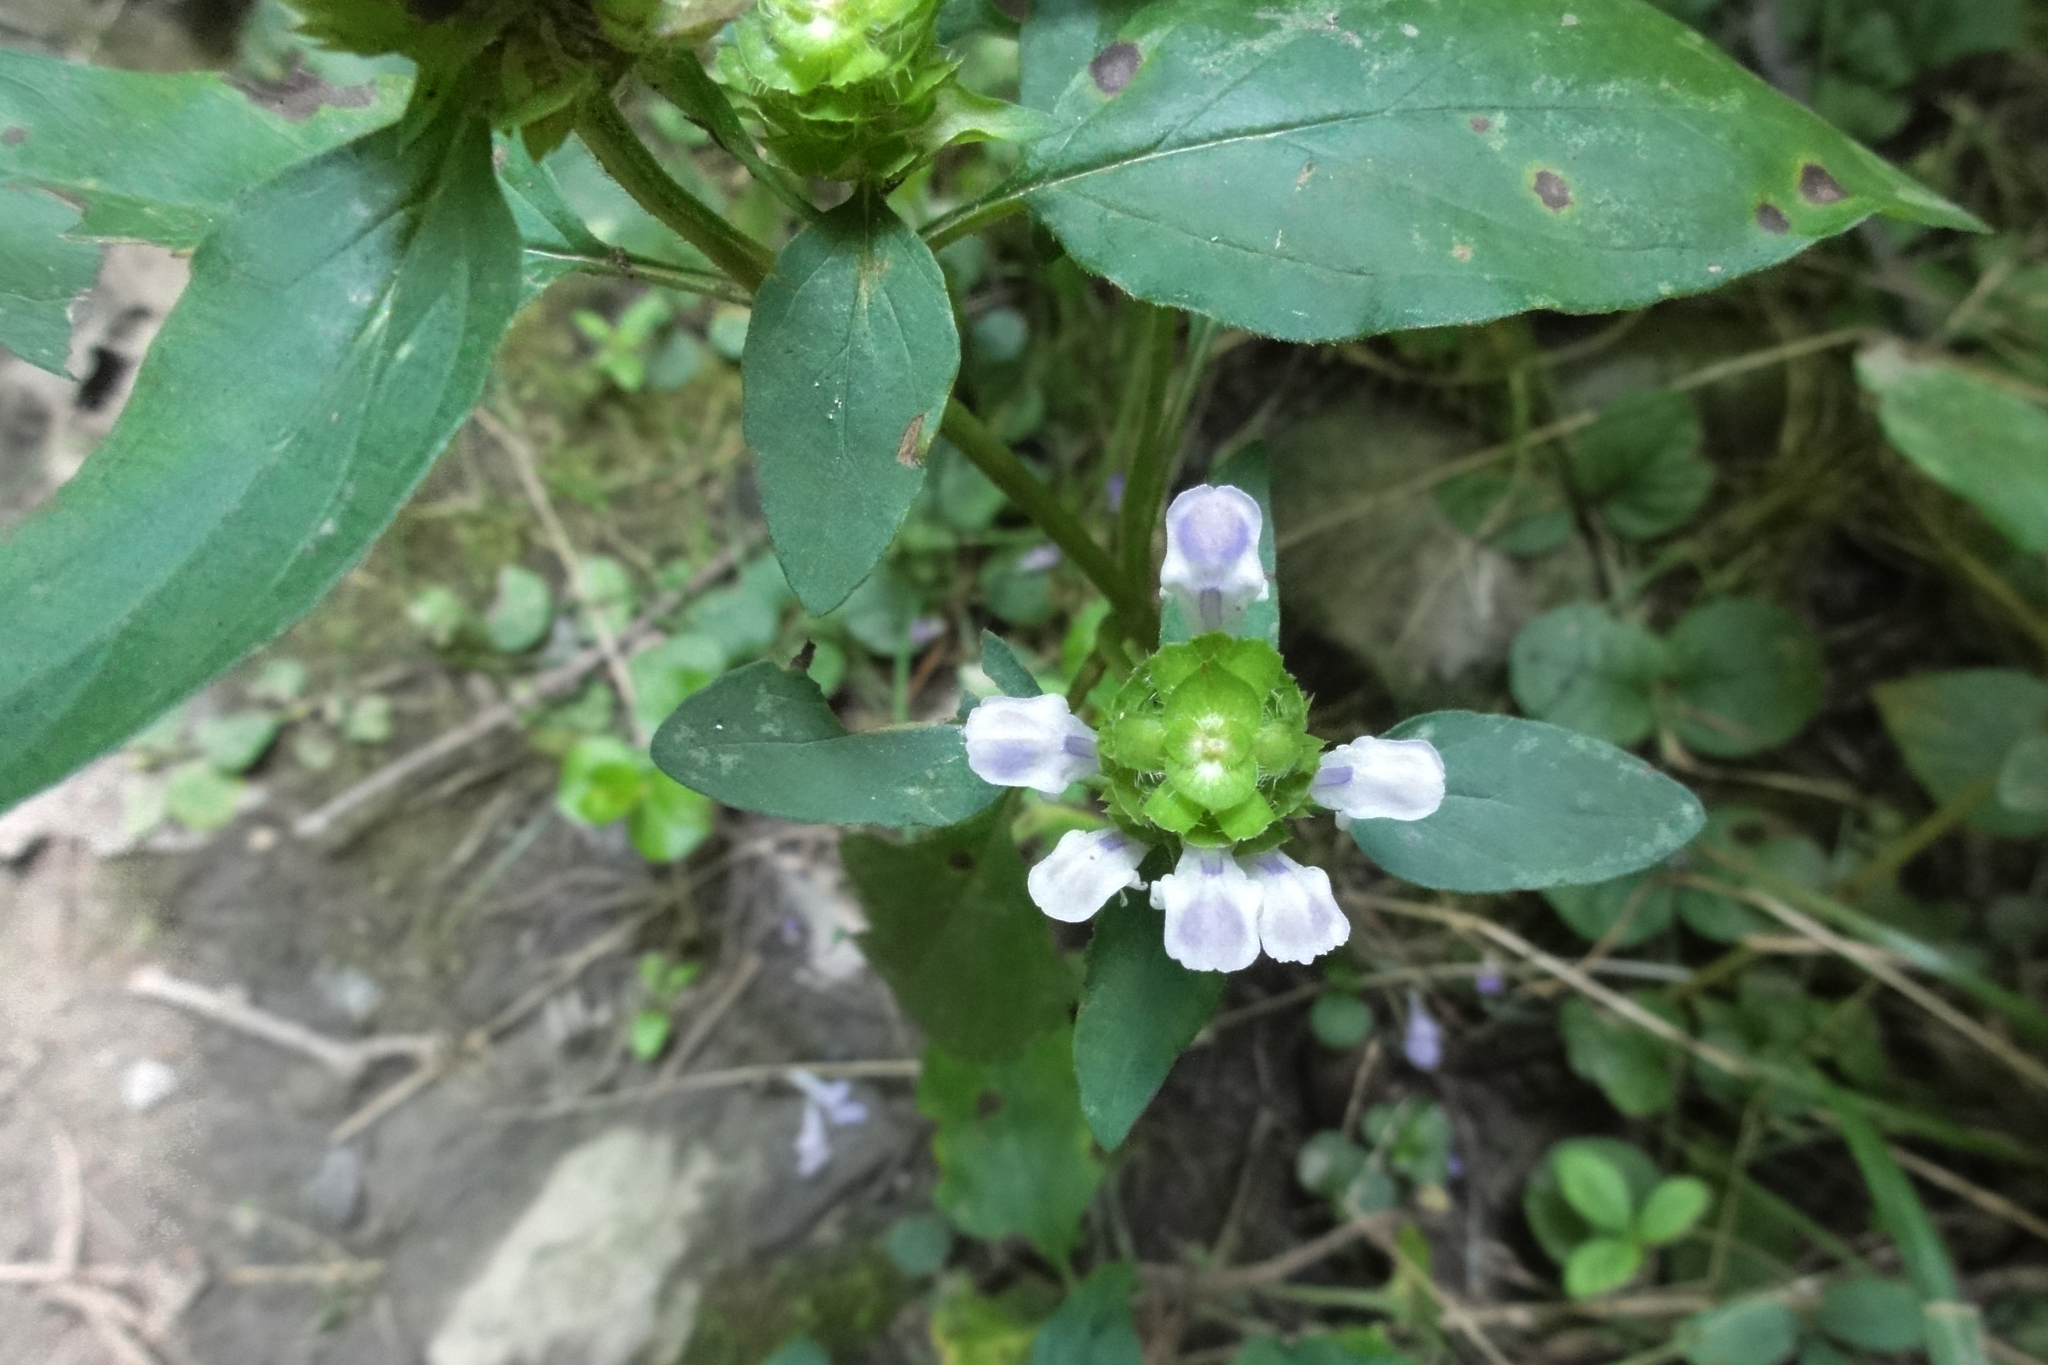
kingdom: Plantae
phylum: Tracheophyta
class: Magnoliopsida
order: Lamiales
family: Lamiaceae
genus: Prunella
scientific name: Prunella vulgaris
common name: Heal-all
